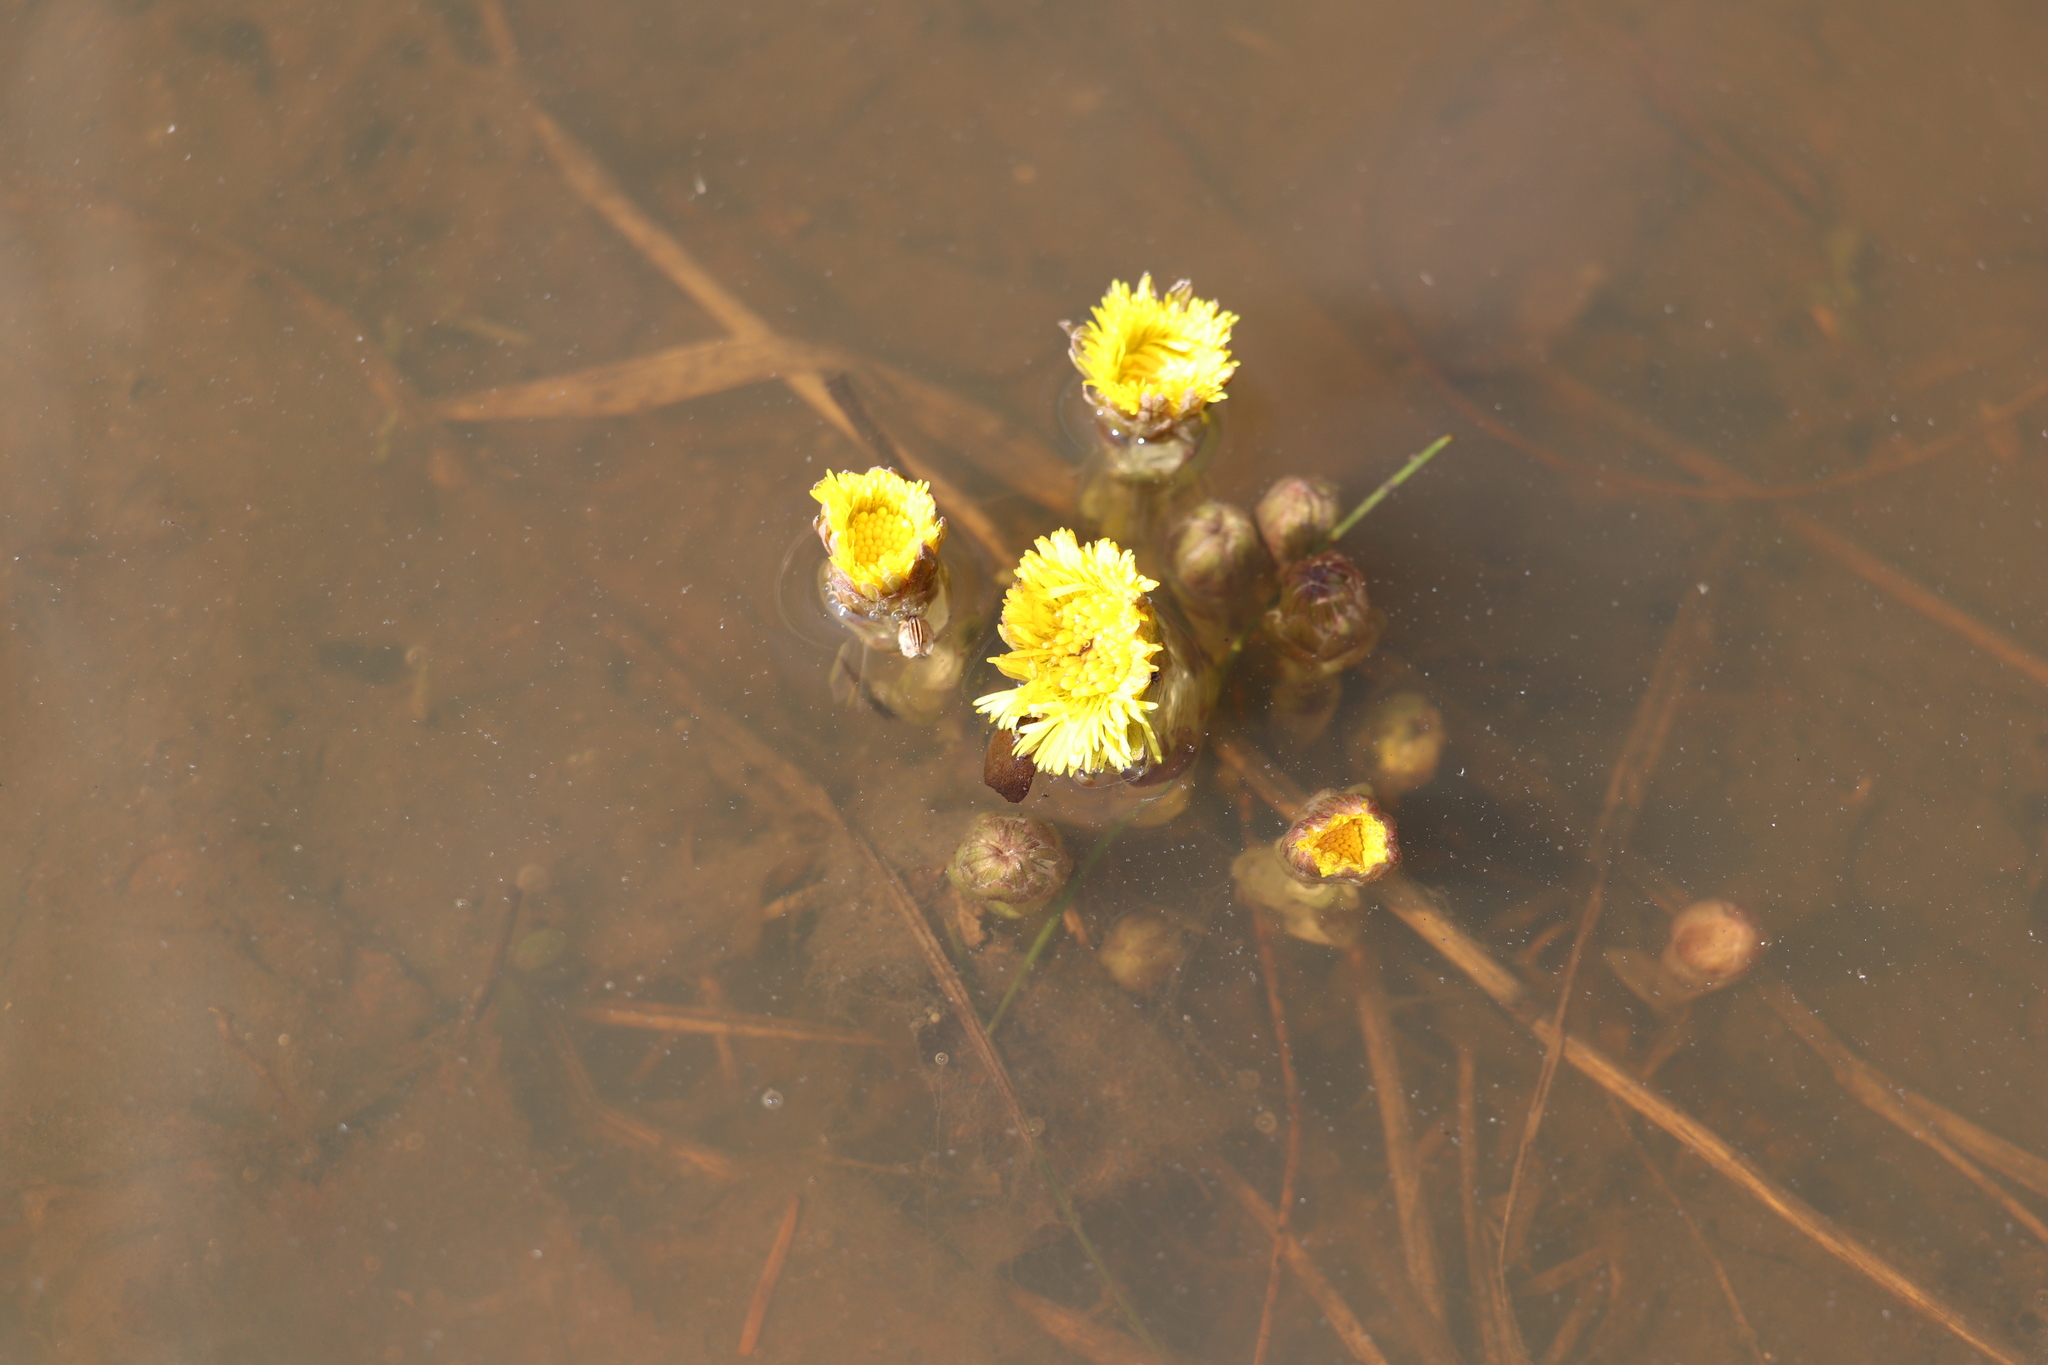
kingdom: Plantae
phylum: Tracheophyta
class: Magnoliopsida
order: Asterales
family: Asteraceae
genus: Tussilago
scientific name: Tussilago farfara
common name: Coltsfoot
